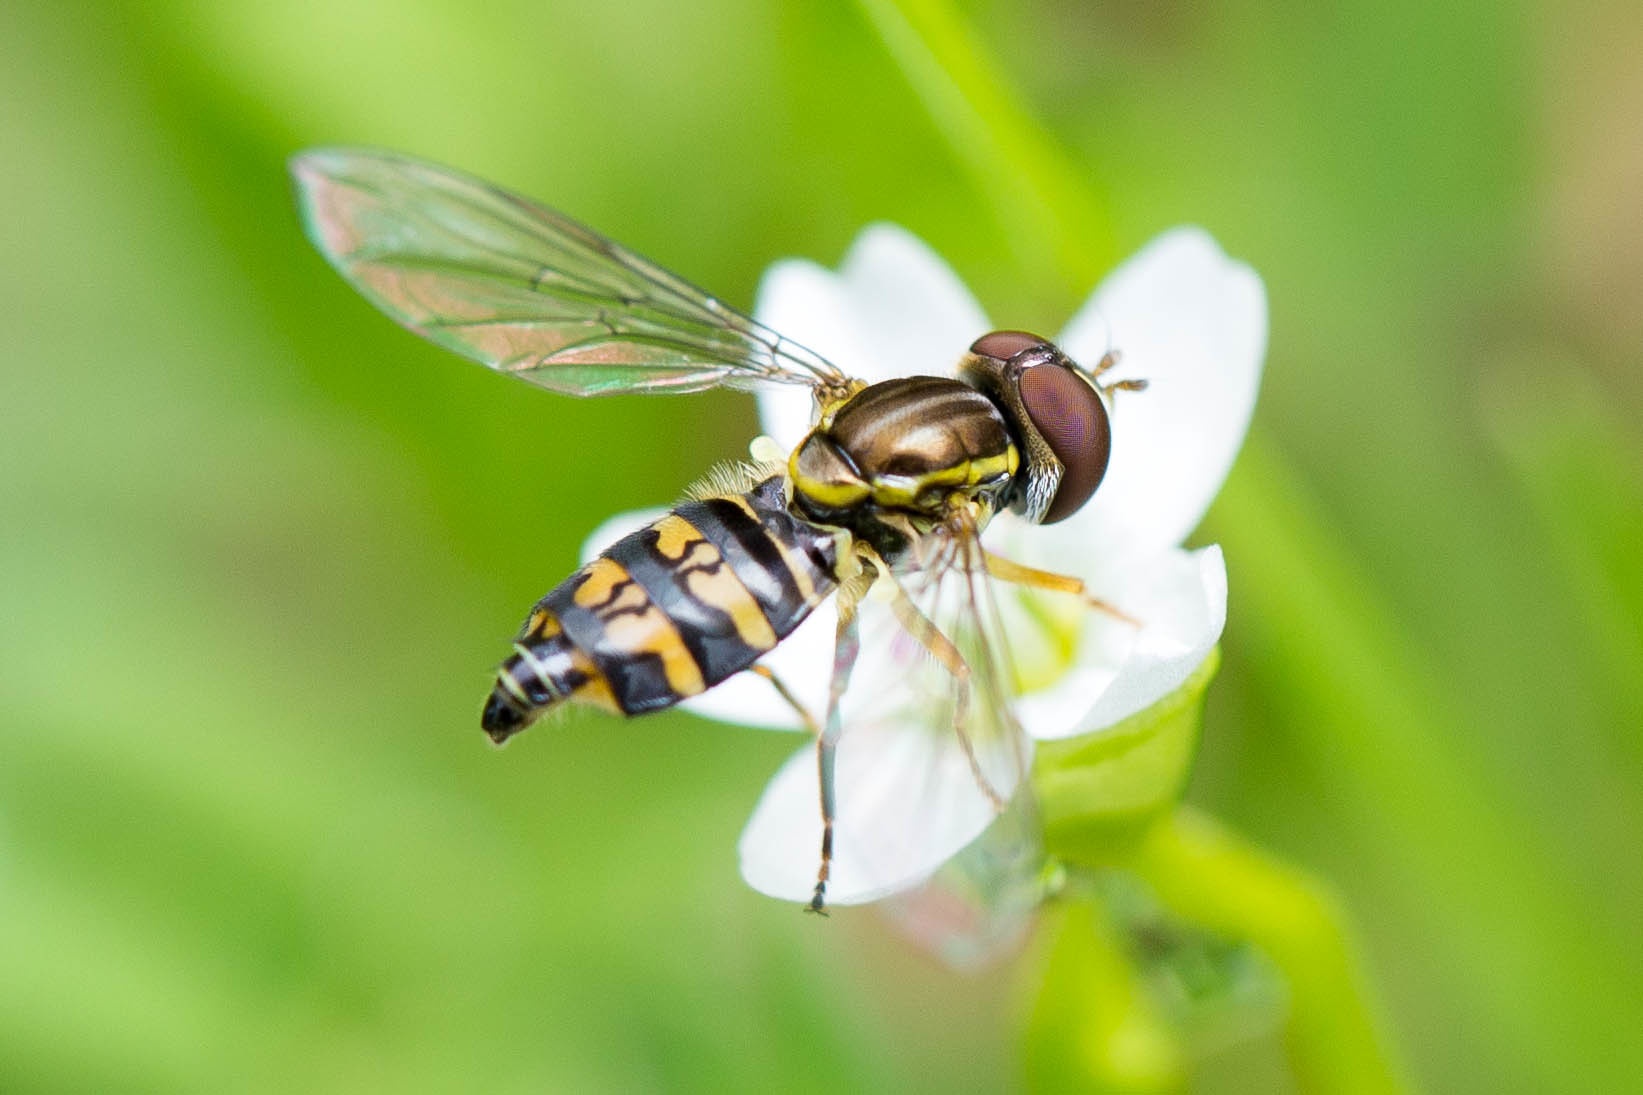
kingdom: Animalia
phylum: Arthropoda
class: Insecta
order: Diptera
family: Syrphidae
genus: Toxomerus
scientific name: Toxomerus occidentalis
